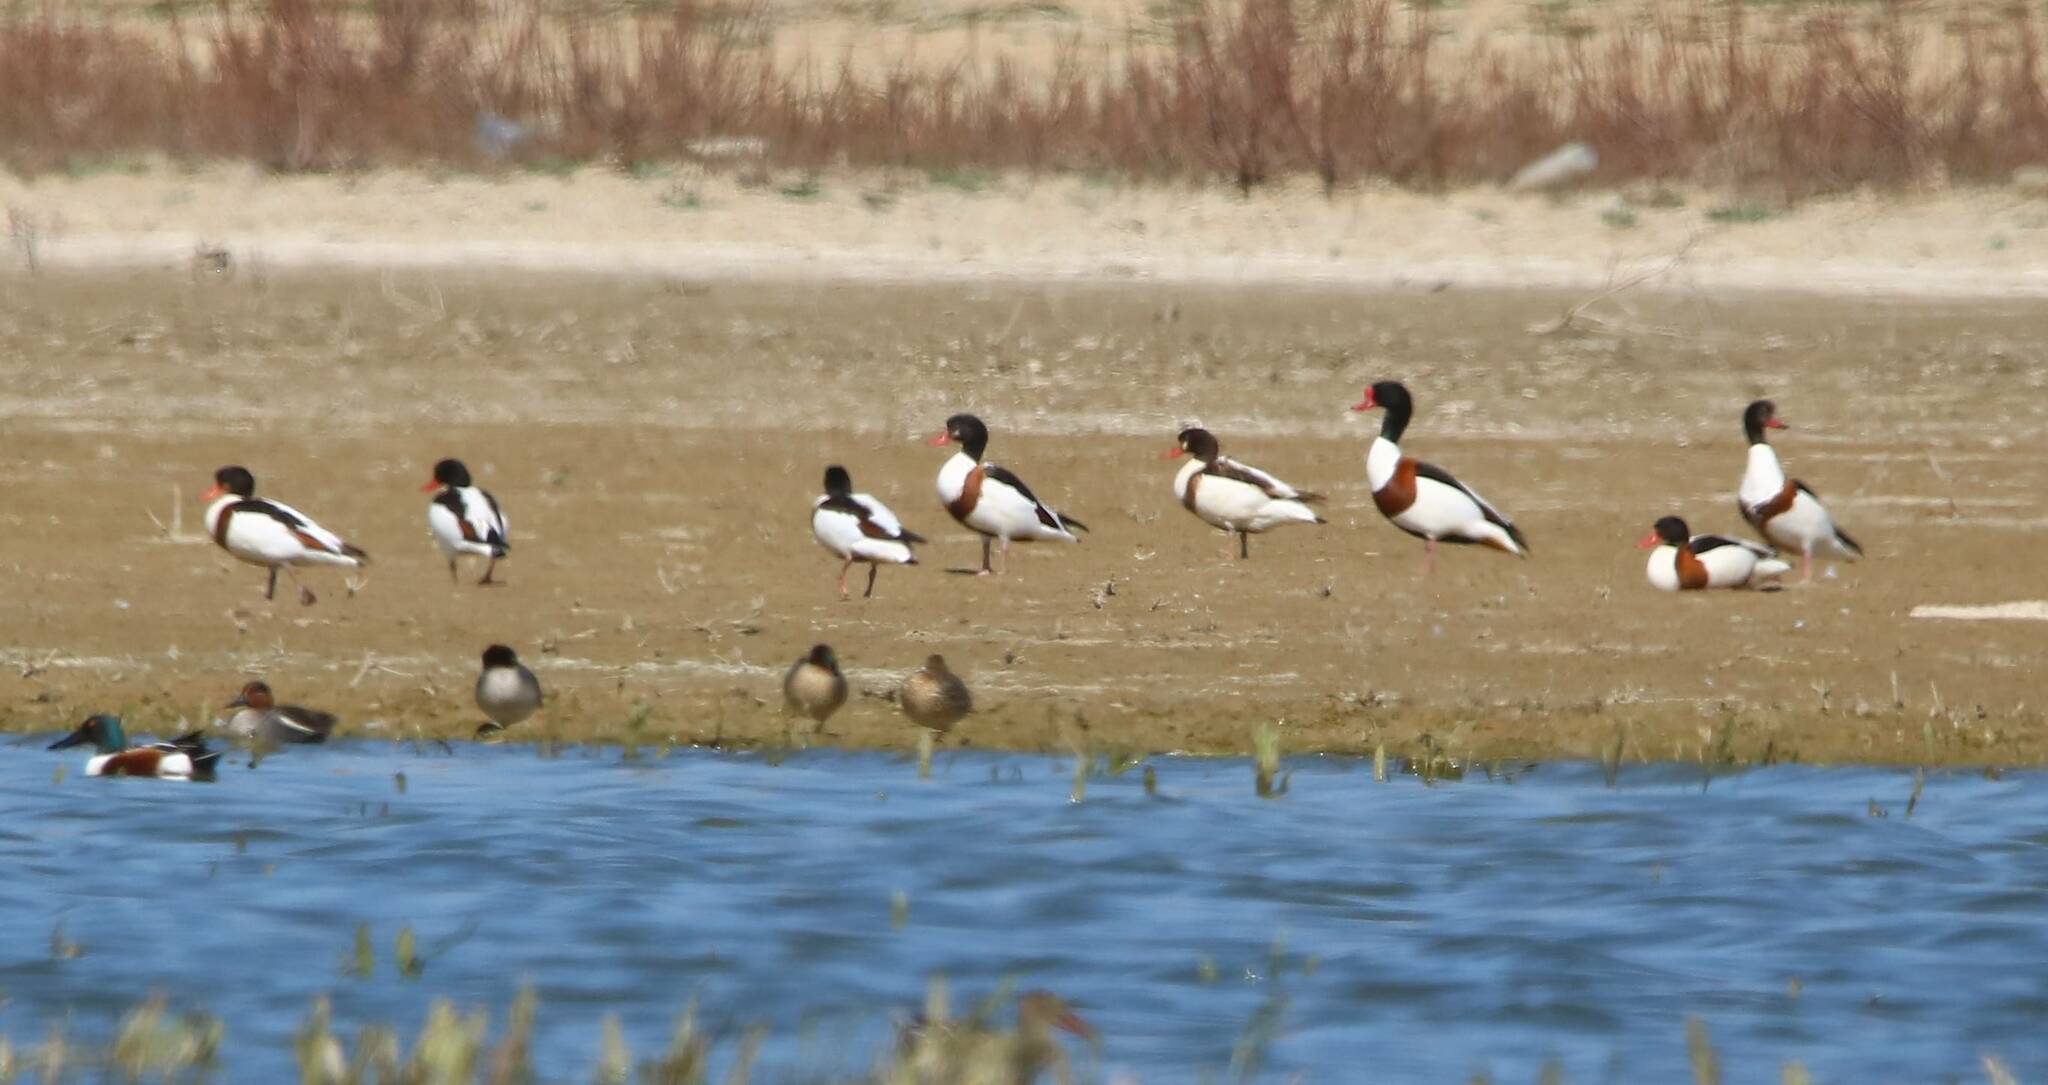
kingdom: Animalia
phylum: Chordata
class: Aves
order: Anseriformes
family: Anatidae
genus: Tadorna
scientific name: Tadorna tadorna
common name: Common shelduck
